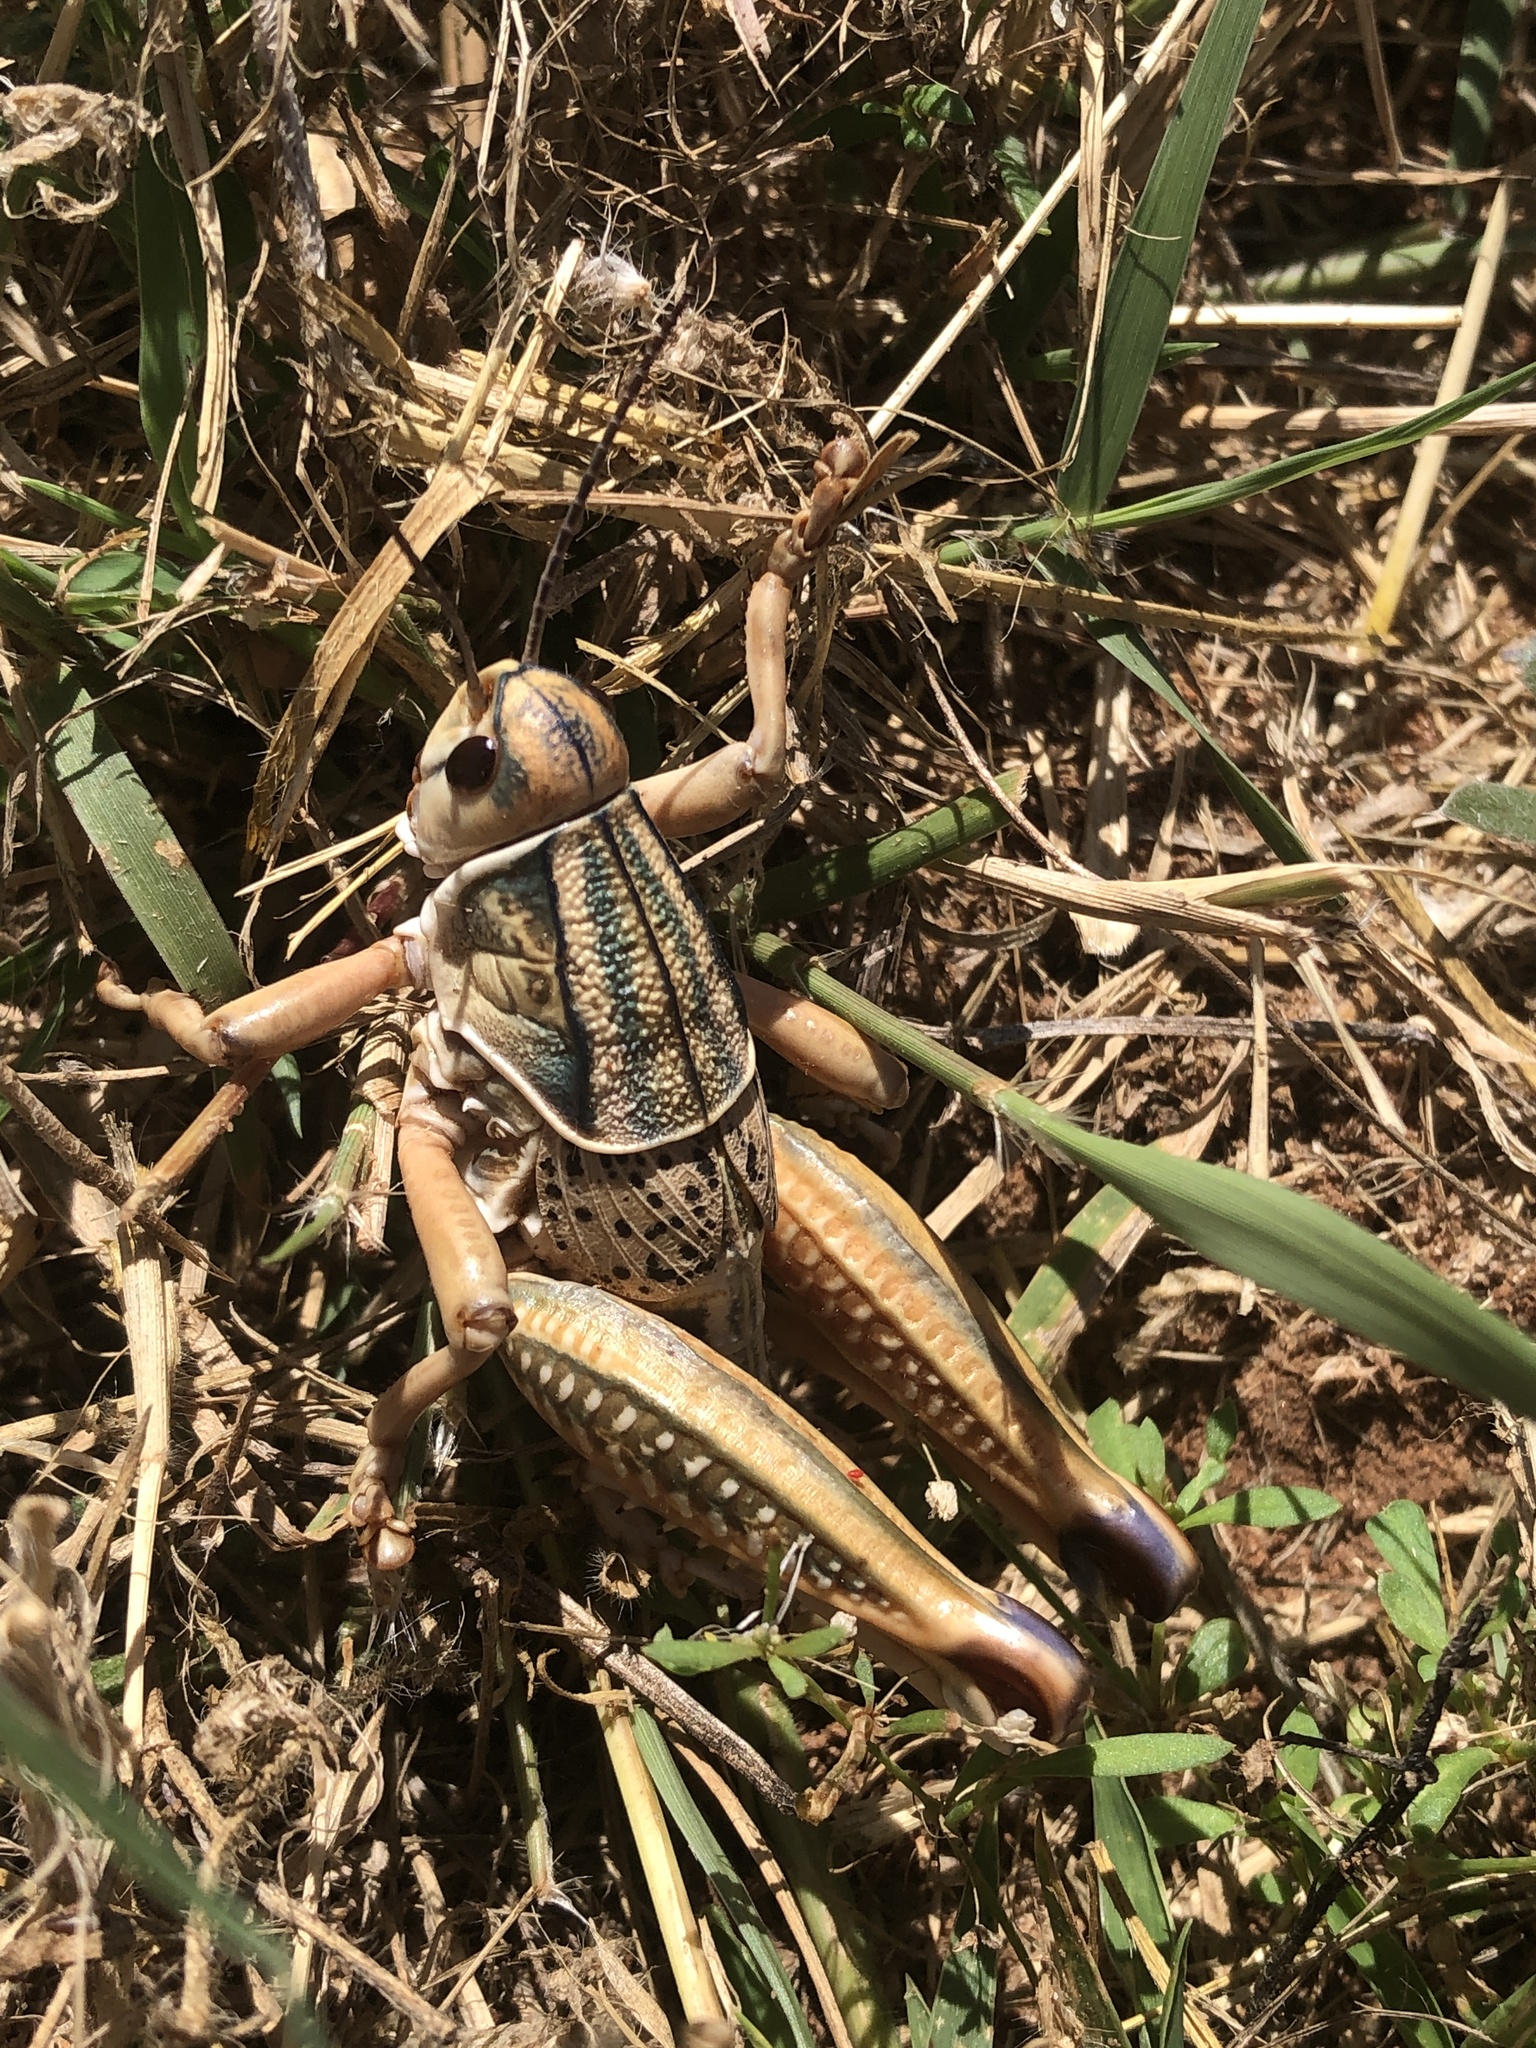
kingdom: Animalia
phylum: Arthropoda
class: Insecta
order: Orthoptera
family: Romaleidae
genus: Brachystola
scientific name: Brachystola magna
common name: Plains lubber grasshopper
